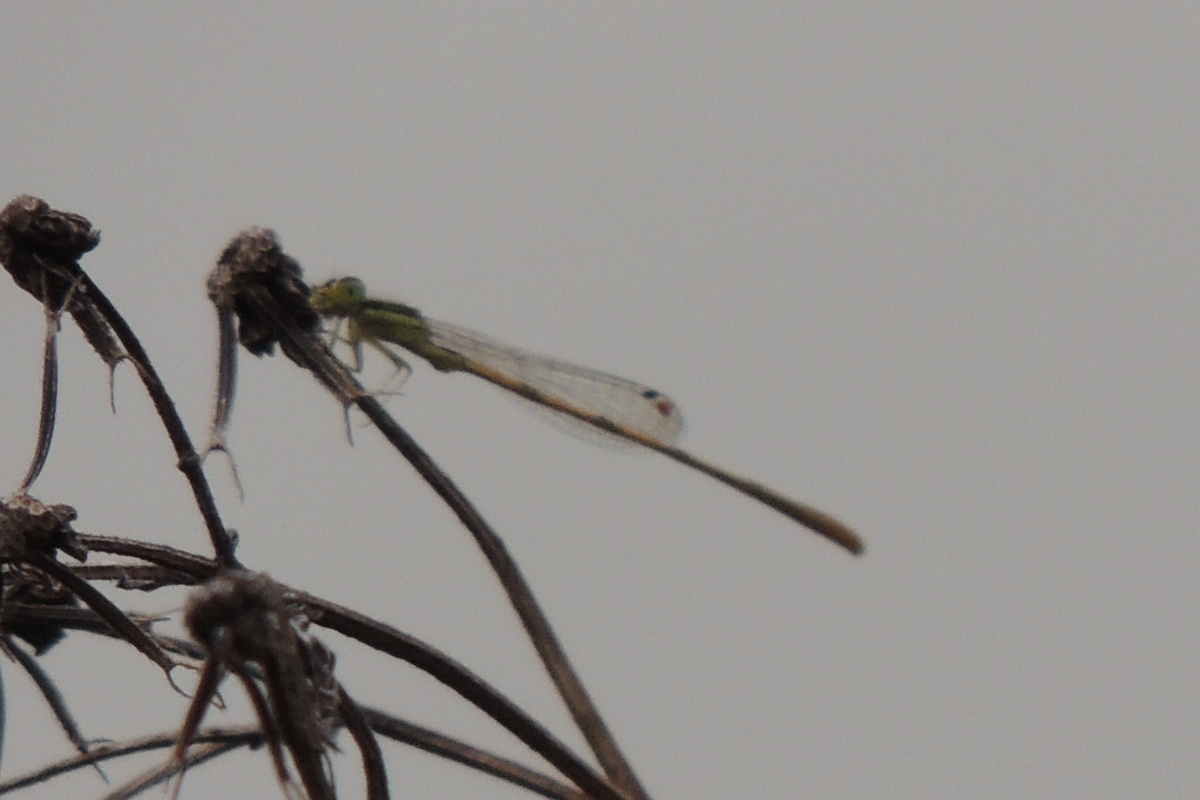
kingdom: Animalia
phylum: Arthropoda
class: Insecta
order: Odonata
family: Coenagrionidae
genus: Ischnura
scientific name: Ischnura hastata
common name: Citrine forktail
